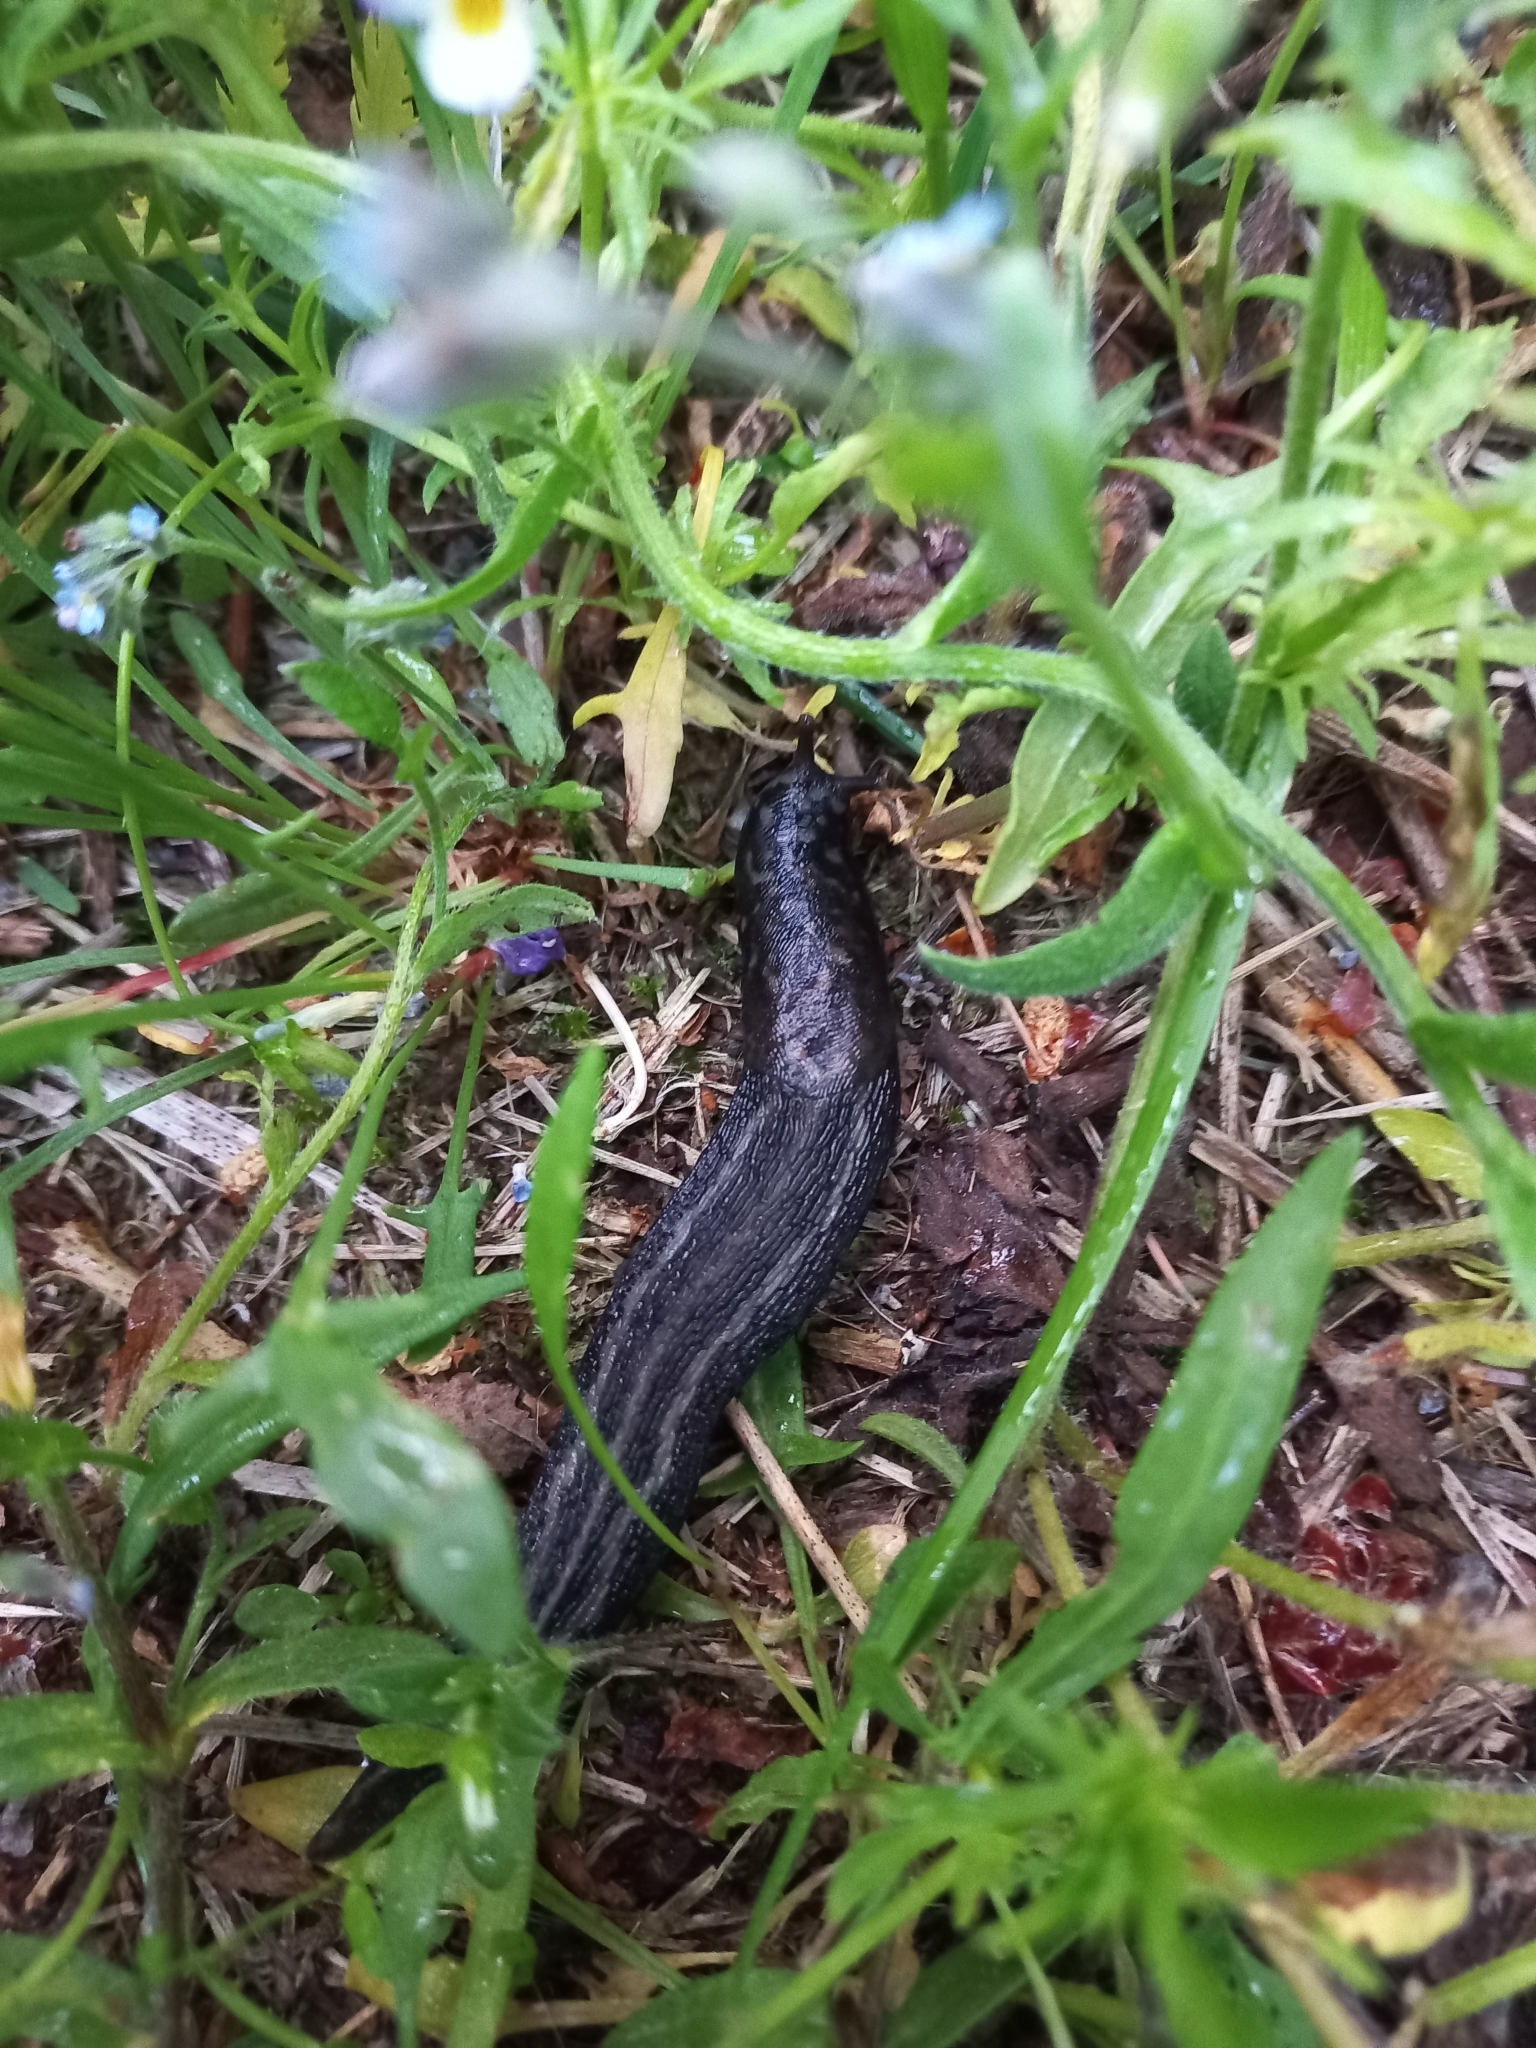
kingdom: Animalia
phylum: Mollusca
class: Gastropoda
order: Stylommatophora
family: Limacidae
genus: Limax
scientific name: Limax cinereoniger
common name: Ash-black slug
